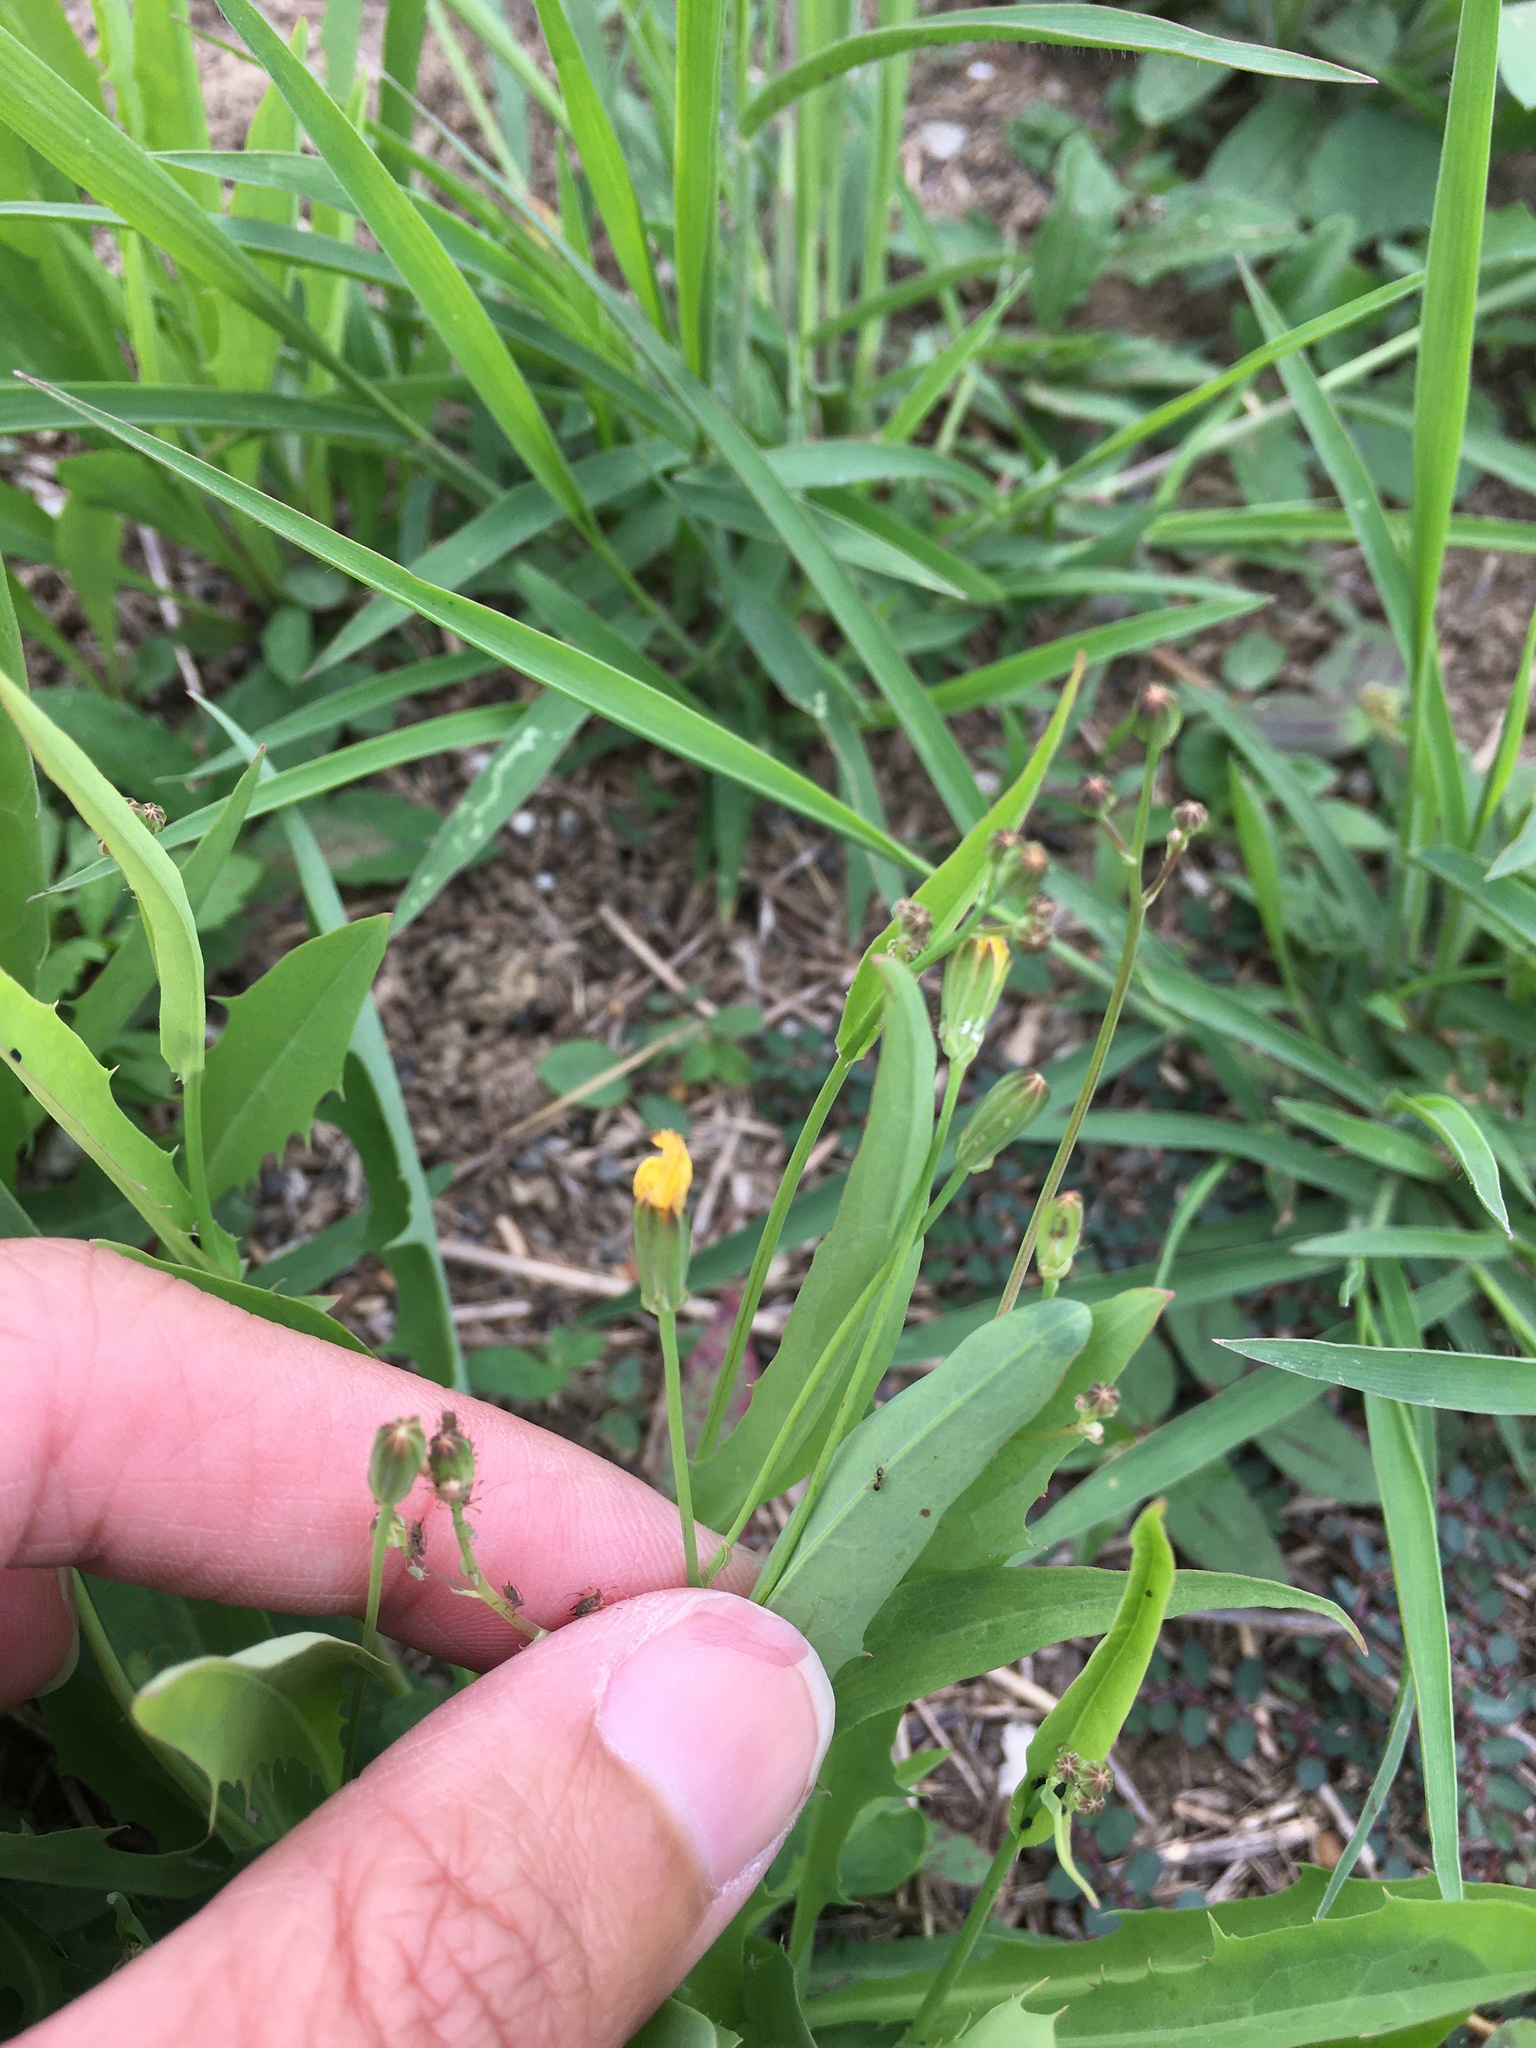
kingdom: Plantae
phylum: Tracheophyta
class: Magnoliopsida
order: Asterales
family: Asteraceae
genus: Ixeris
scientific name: Ixeris chinensis
